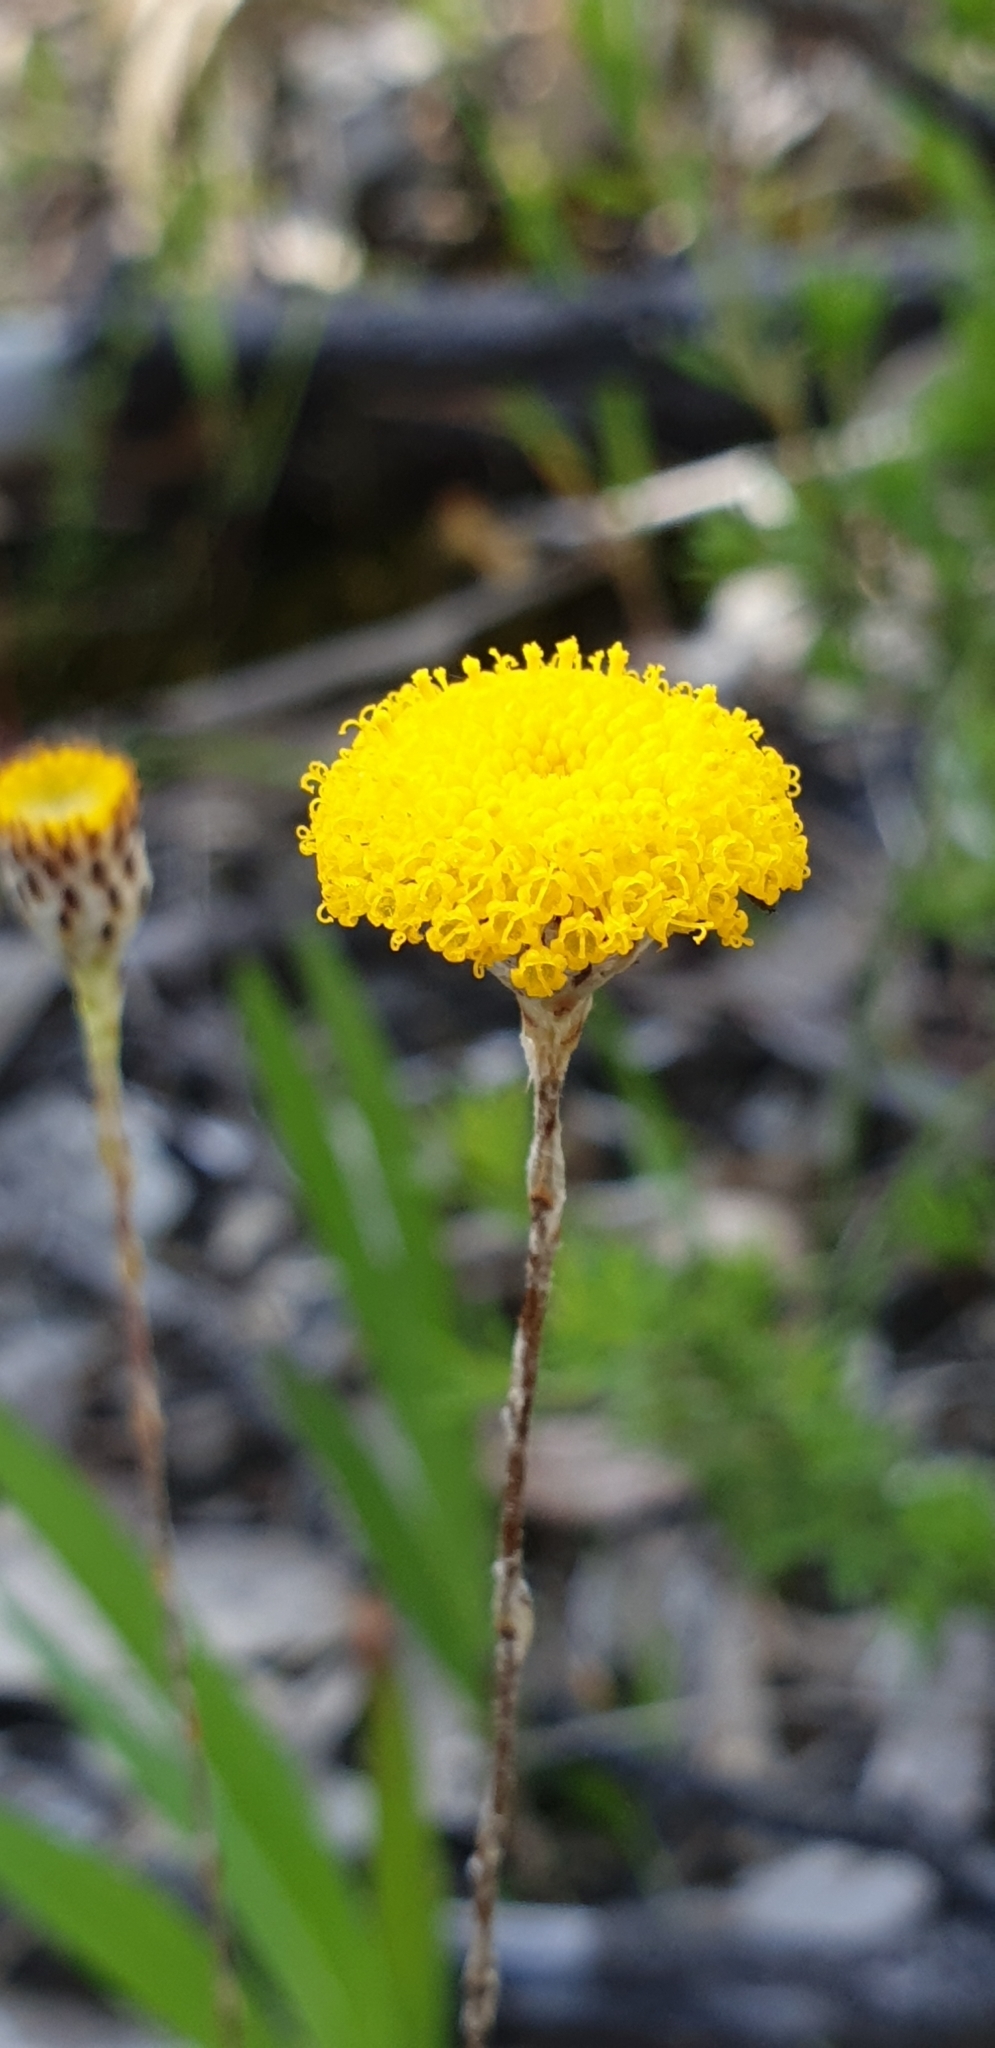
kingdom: Plantae
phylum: Tracheophyta
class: Magnoliopsida
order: Asterales
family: Asteraceae
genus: Leptorhynchos
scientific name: Leptorhynchos squamatus
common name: Scaly-buttons
